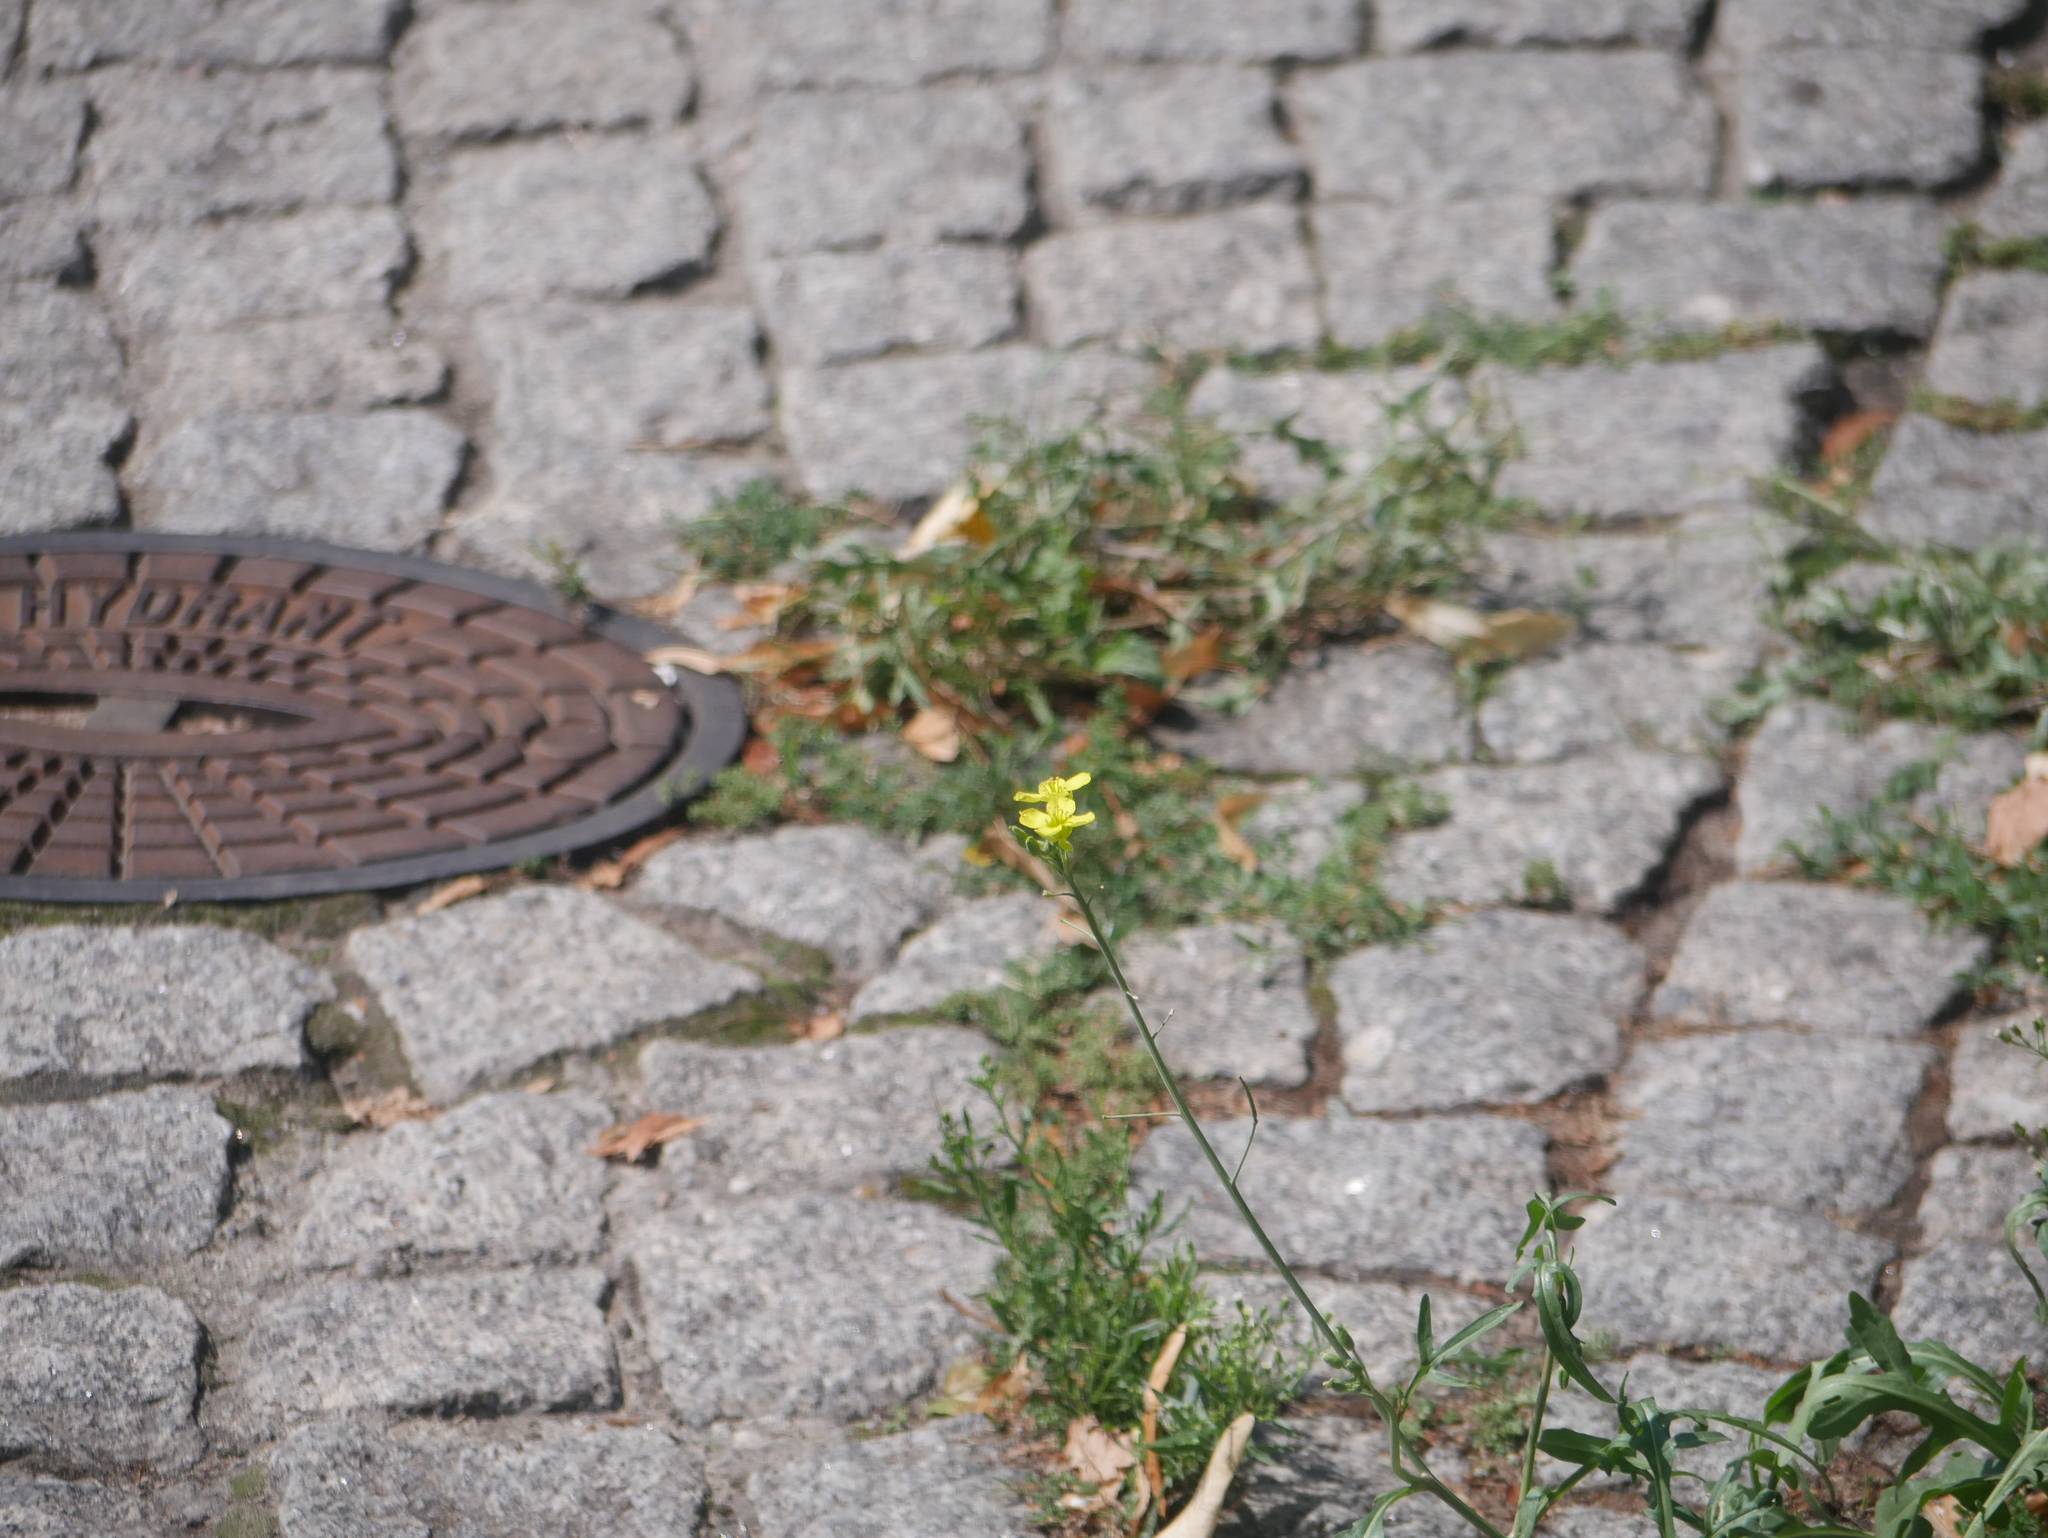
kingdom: Plantae
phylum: Tracheophyta
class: Magnoliopsida
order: Brassicales
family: Brassicaceae
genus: Diplotaxis
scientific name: Diplotaxis tenuifolia
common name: Perennial wall-rocket
